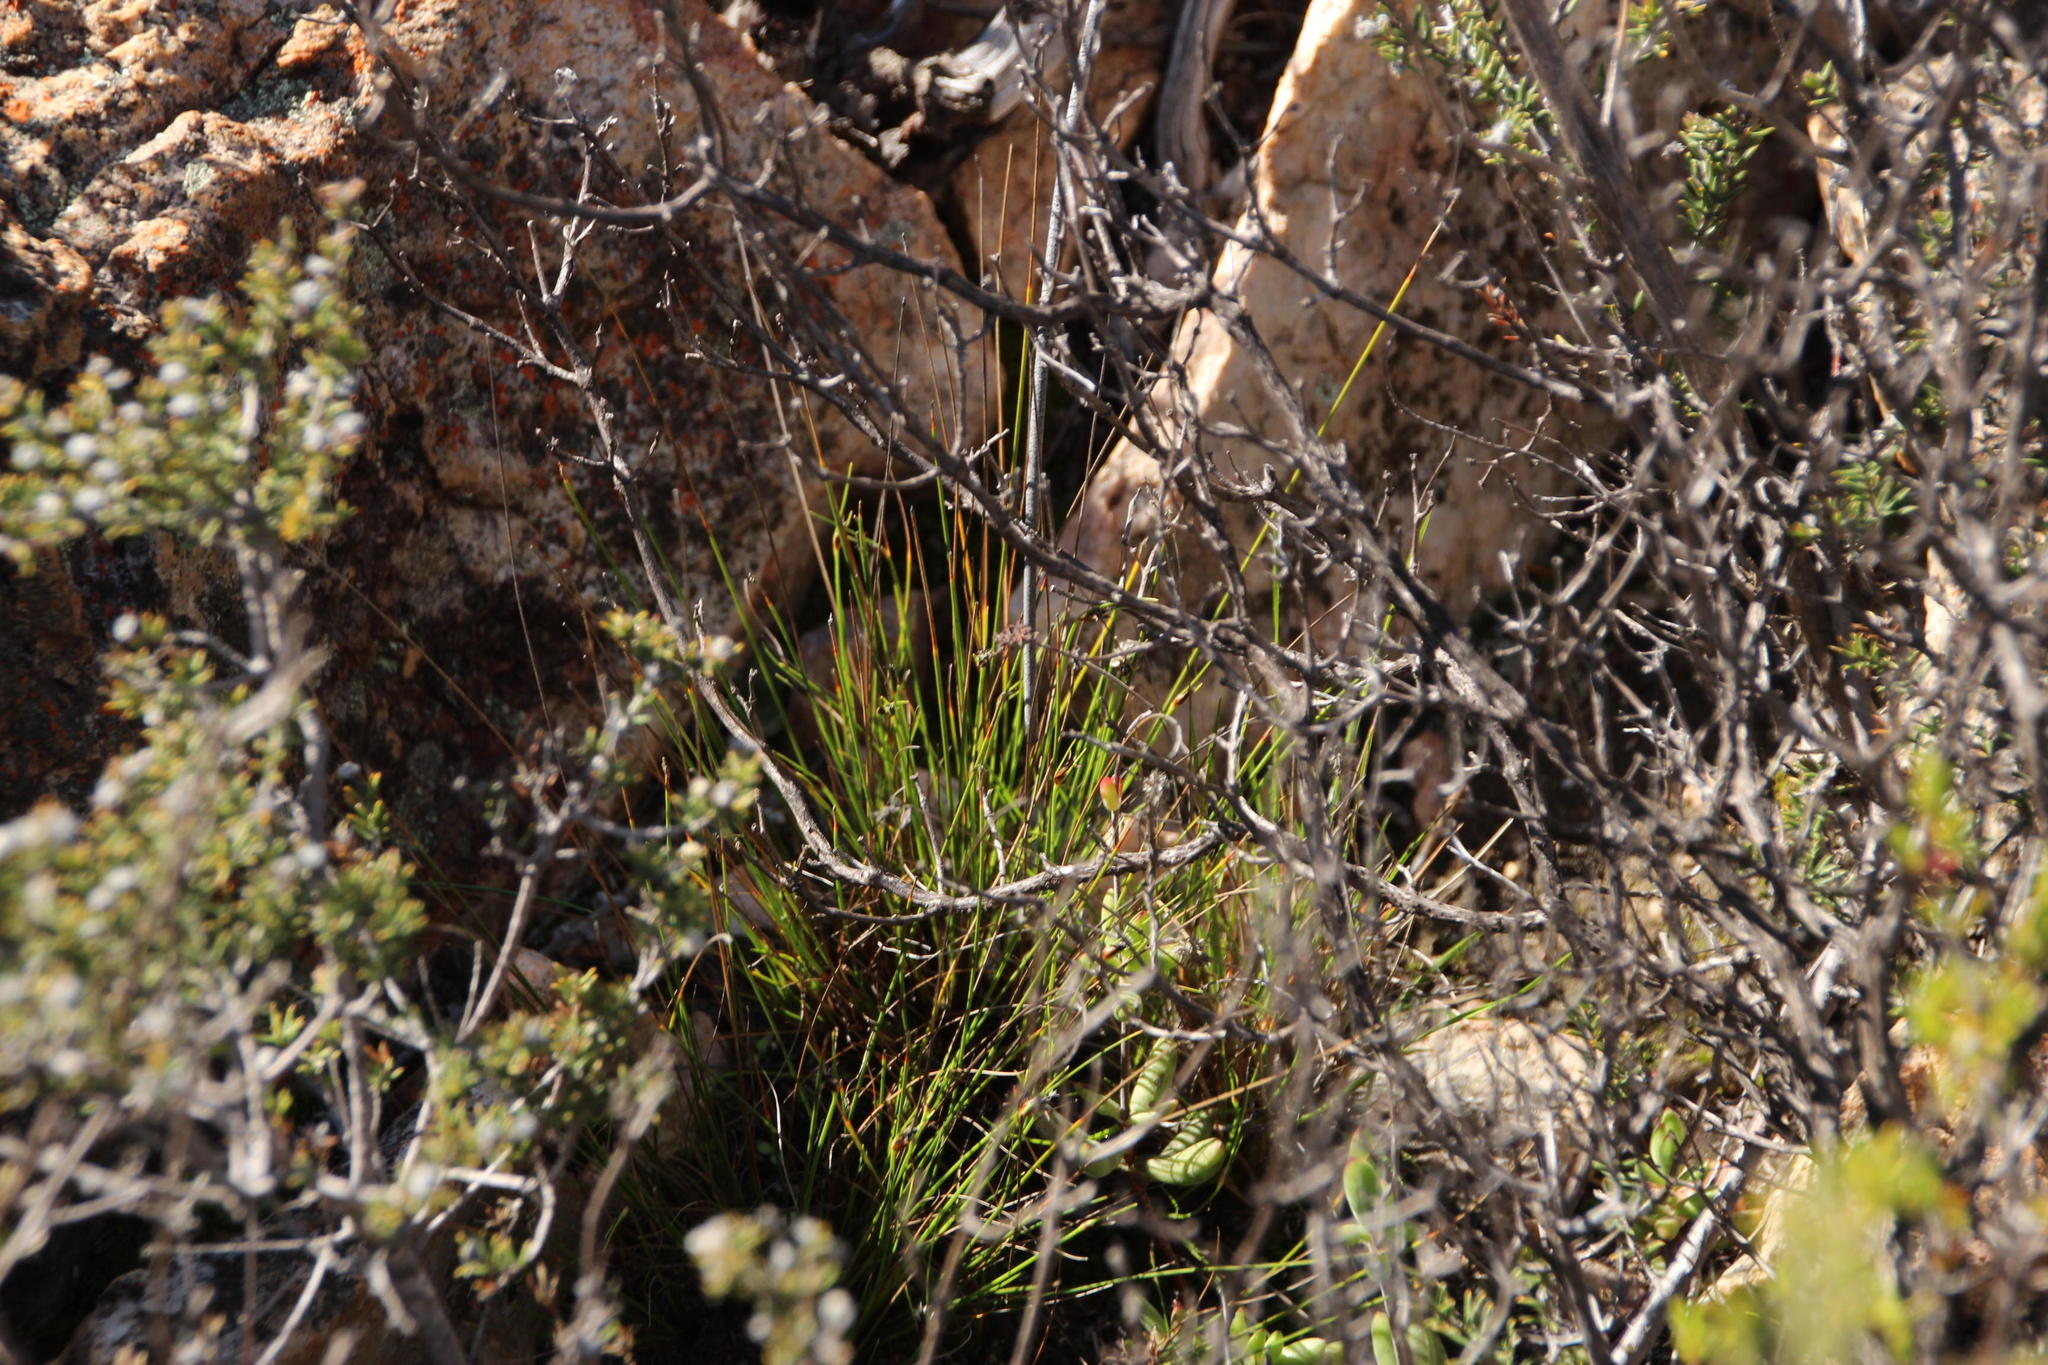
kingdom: Plantae
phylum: Tracheophyta
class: Liliopsida
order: Poales
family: Cyperaceae
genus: Ficinia
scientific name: Ficinia nigrescens
